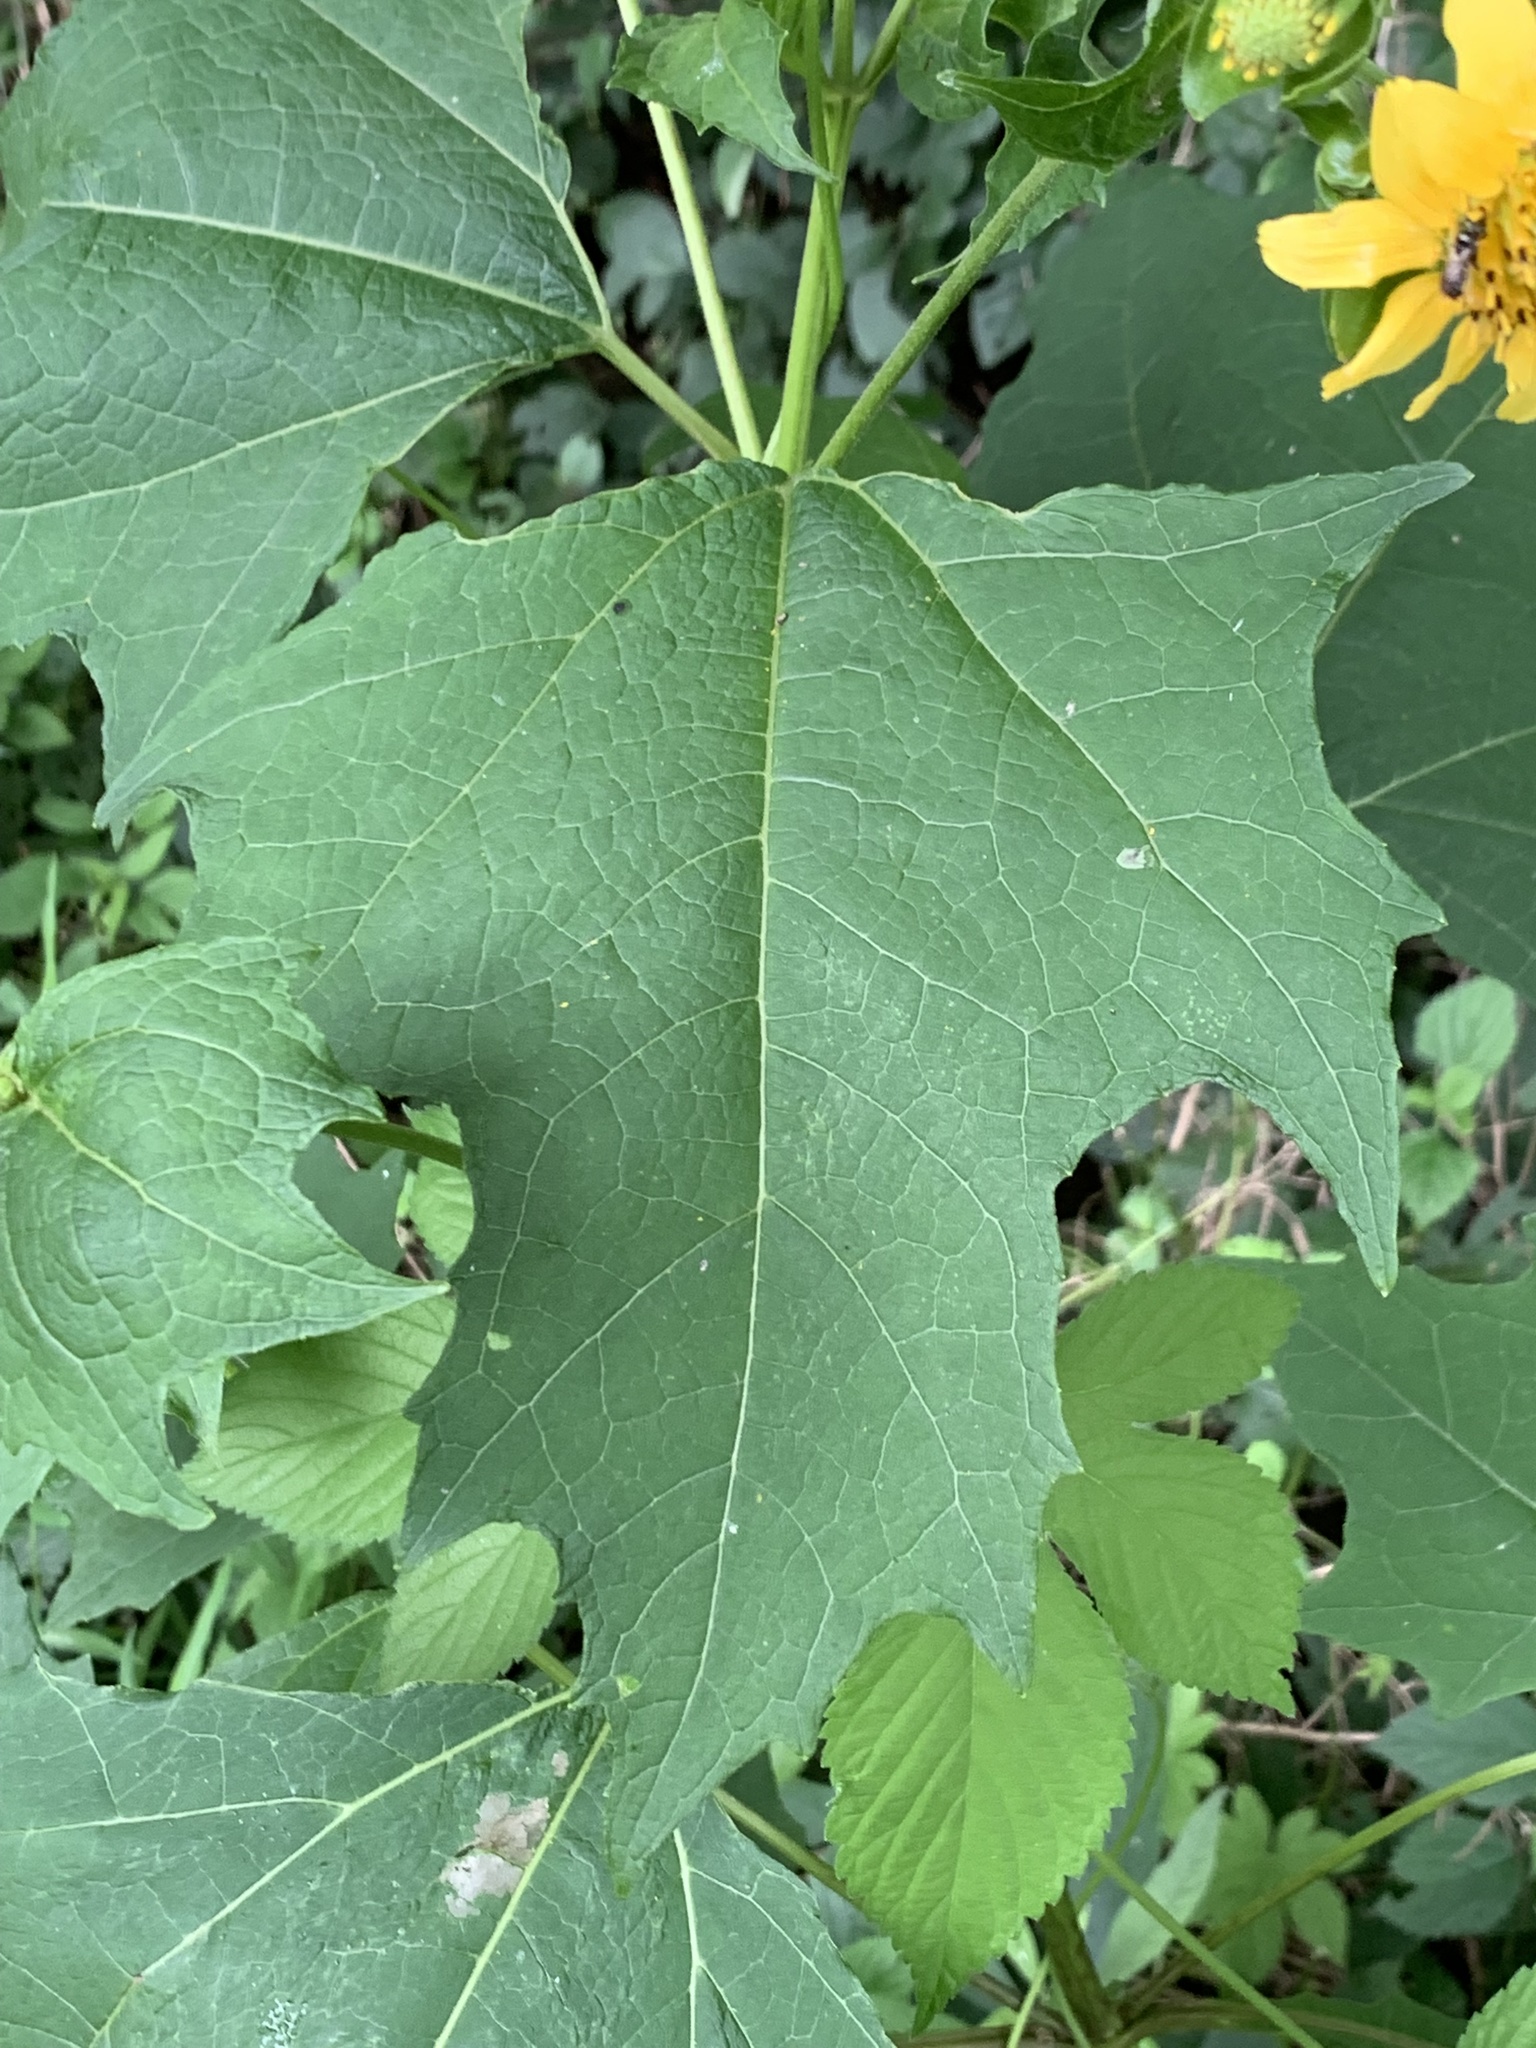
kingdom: Plantae
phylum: Tracheophyta
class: Magnoliopsida
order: Asterales
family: Asteraceae
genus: Smallanthus
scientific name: Smallanthus uvedalia
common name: Bear's-foot
